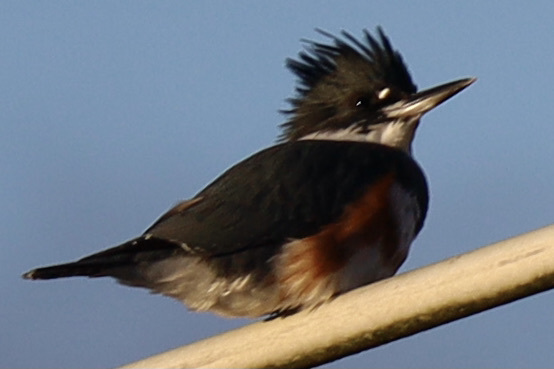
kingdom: Animalia
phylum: Chordata
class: Aves
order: Coraciiformes
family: Alcedinidae
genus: Megaceryle
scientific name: Megaceryle alcyon
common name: Belted kingfisher
